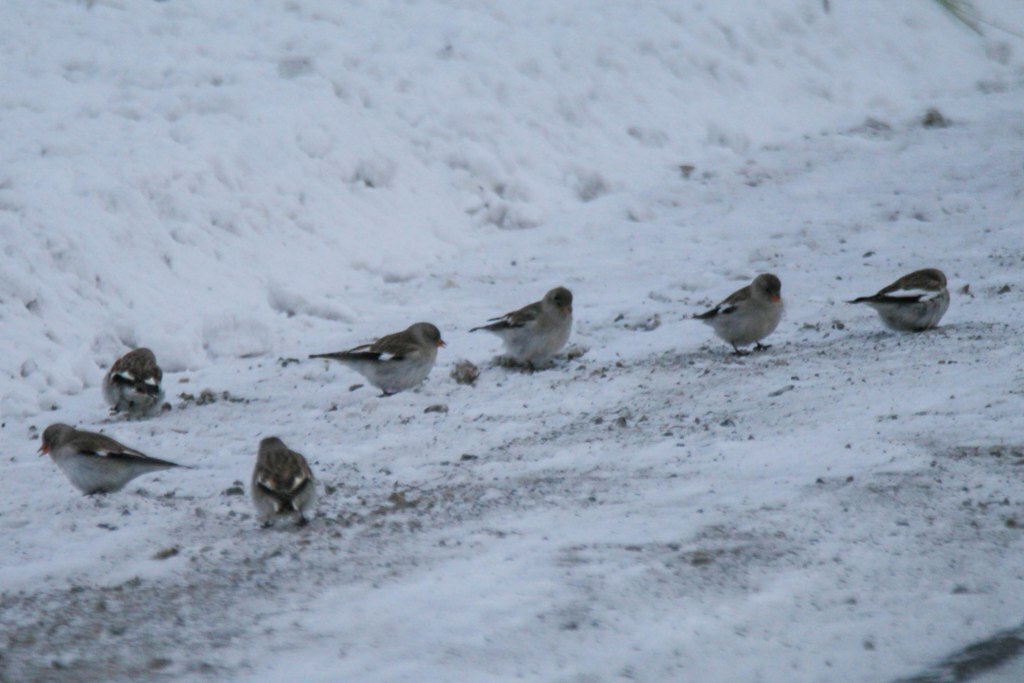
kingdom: Animalia
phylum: Chordata
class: Aves
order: Passeriformes
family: Passeridae
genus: Montifringilla
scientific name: Montifringilla nivalis
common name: White-winged snowfinch
